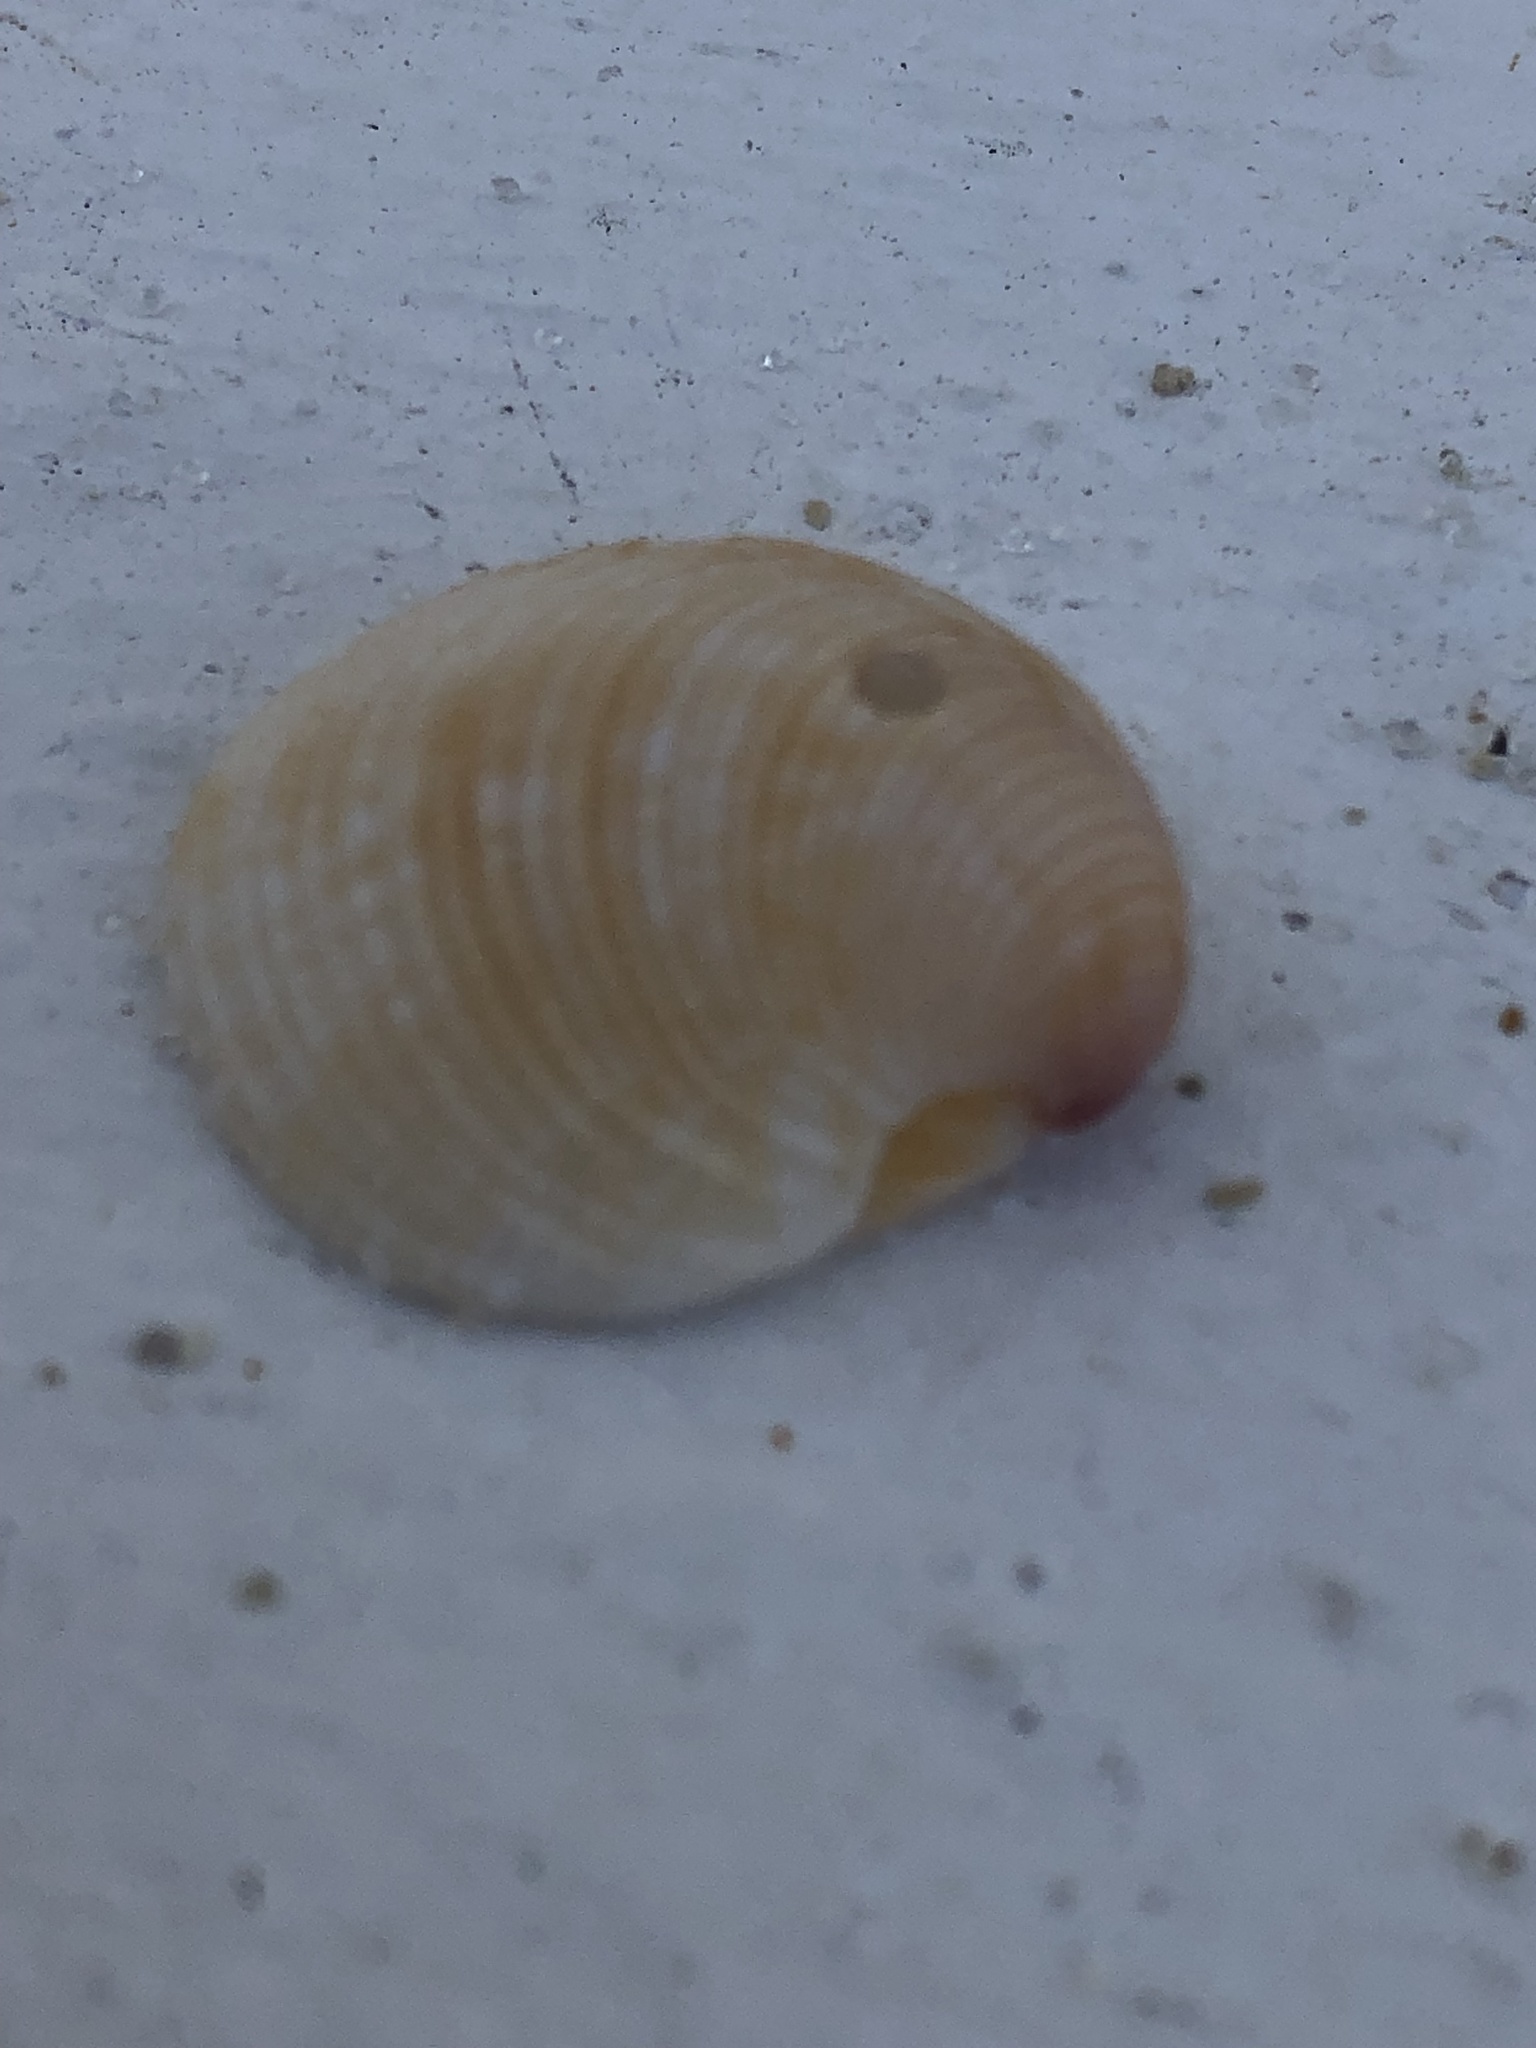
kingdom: Animalia
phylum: Mollusca
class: Bivalvia
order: Venerida
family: Veneridae
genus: Chionopsis
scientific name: Chionopsis intapurpurea
